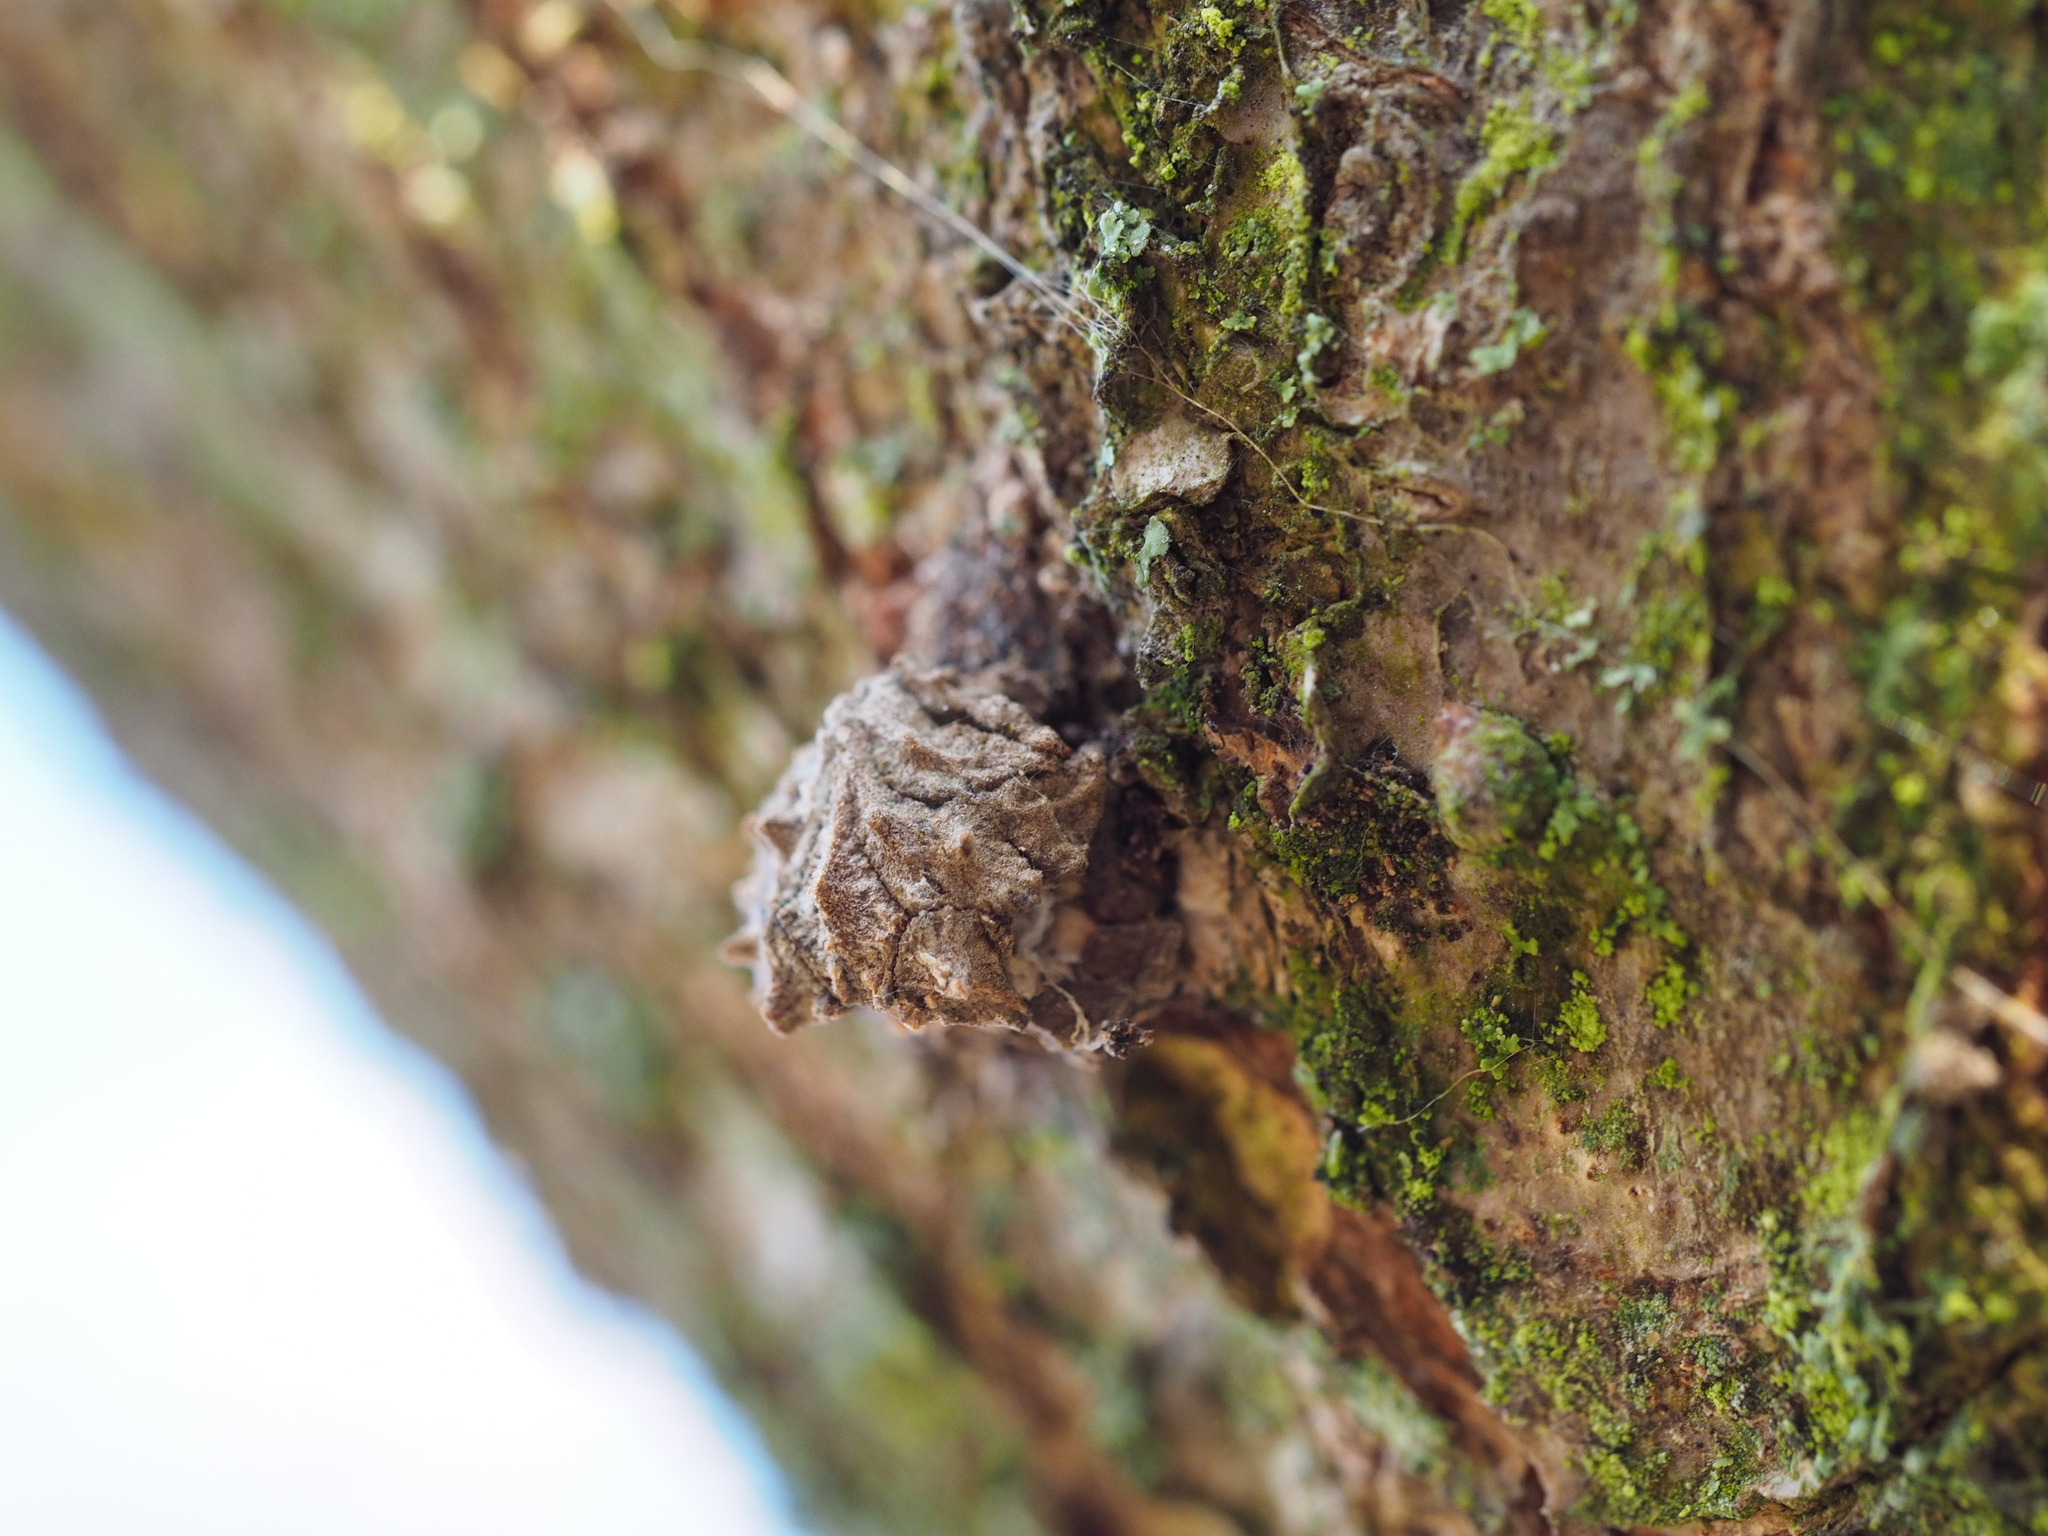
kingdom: Animalia
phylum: Arthropoda
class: Insecta
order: Hymenoptera
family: Cynipidae
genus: Andricus
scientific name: Andricus truncicola
